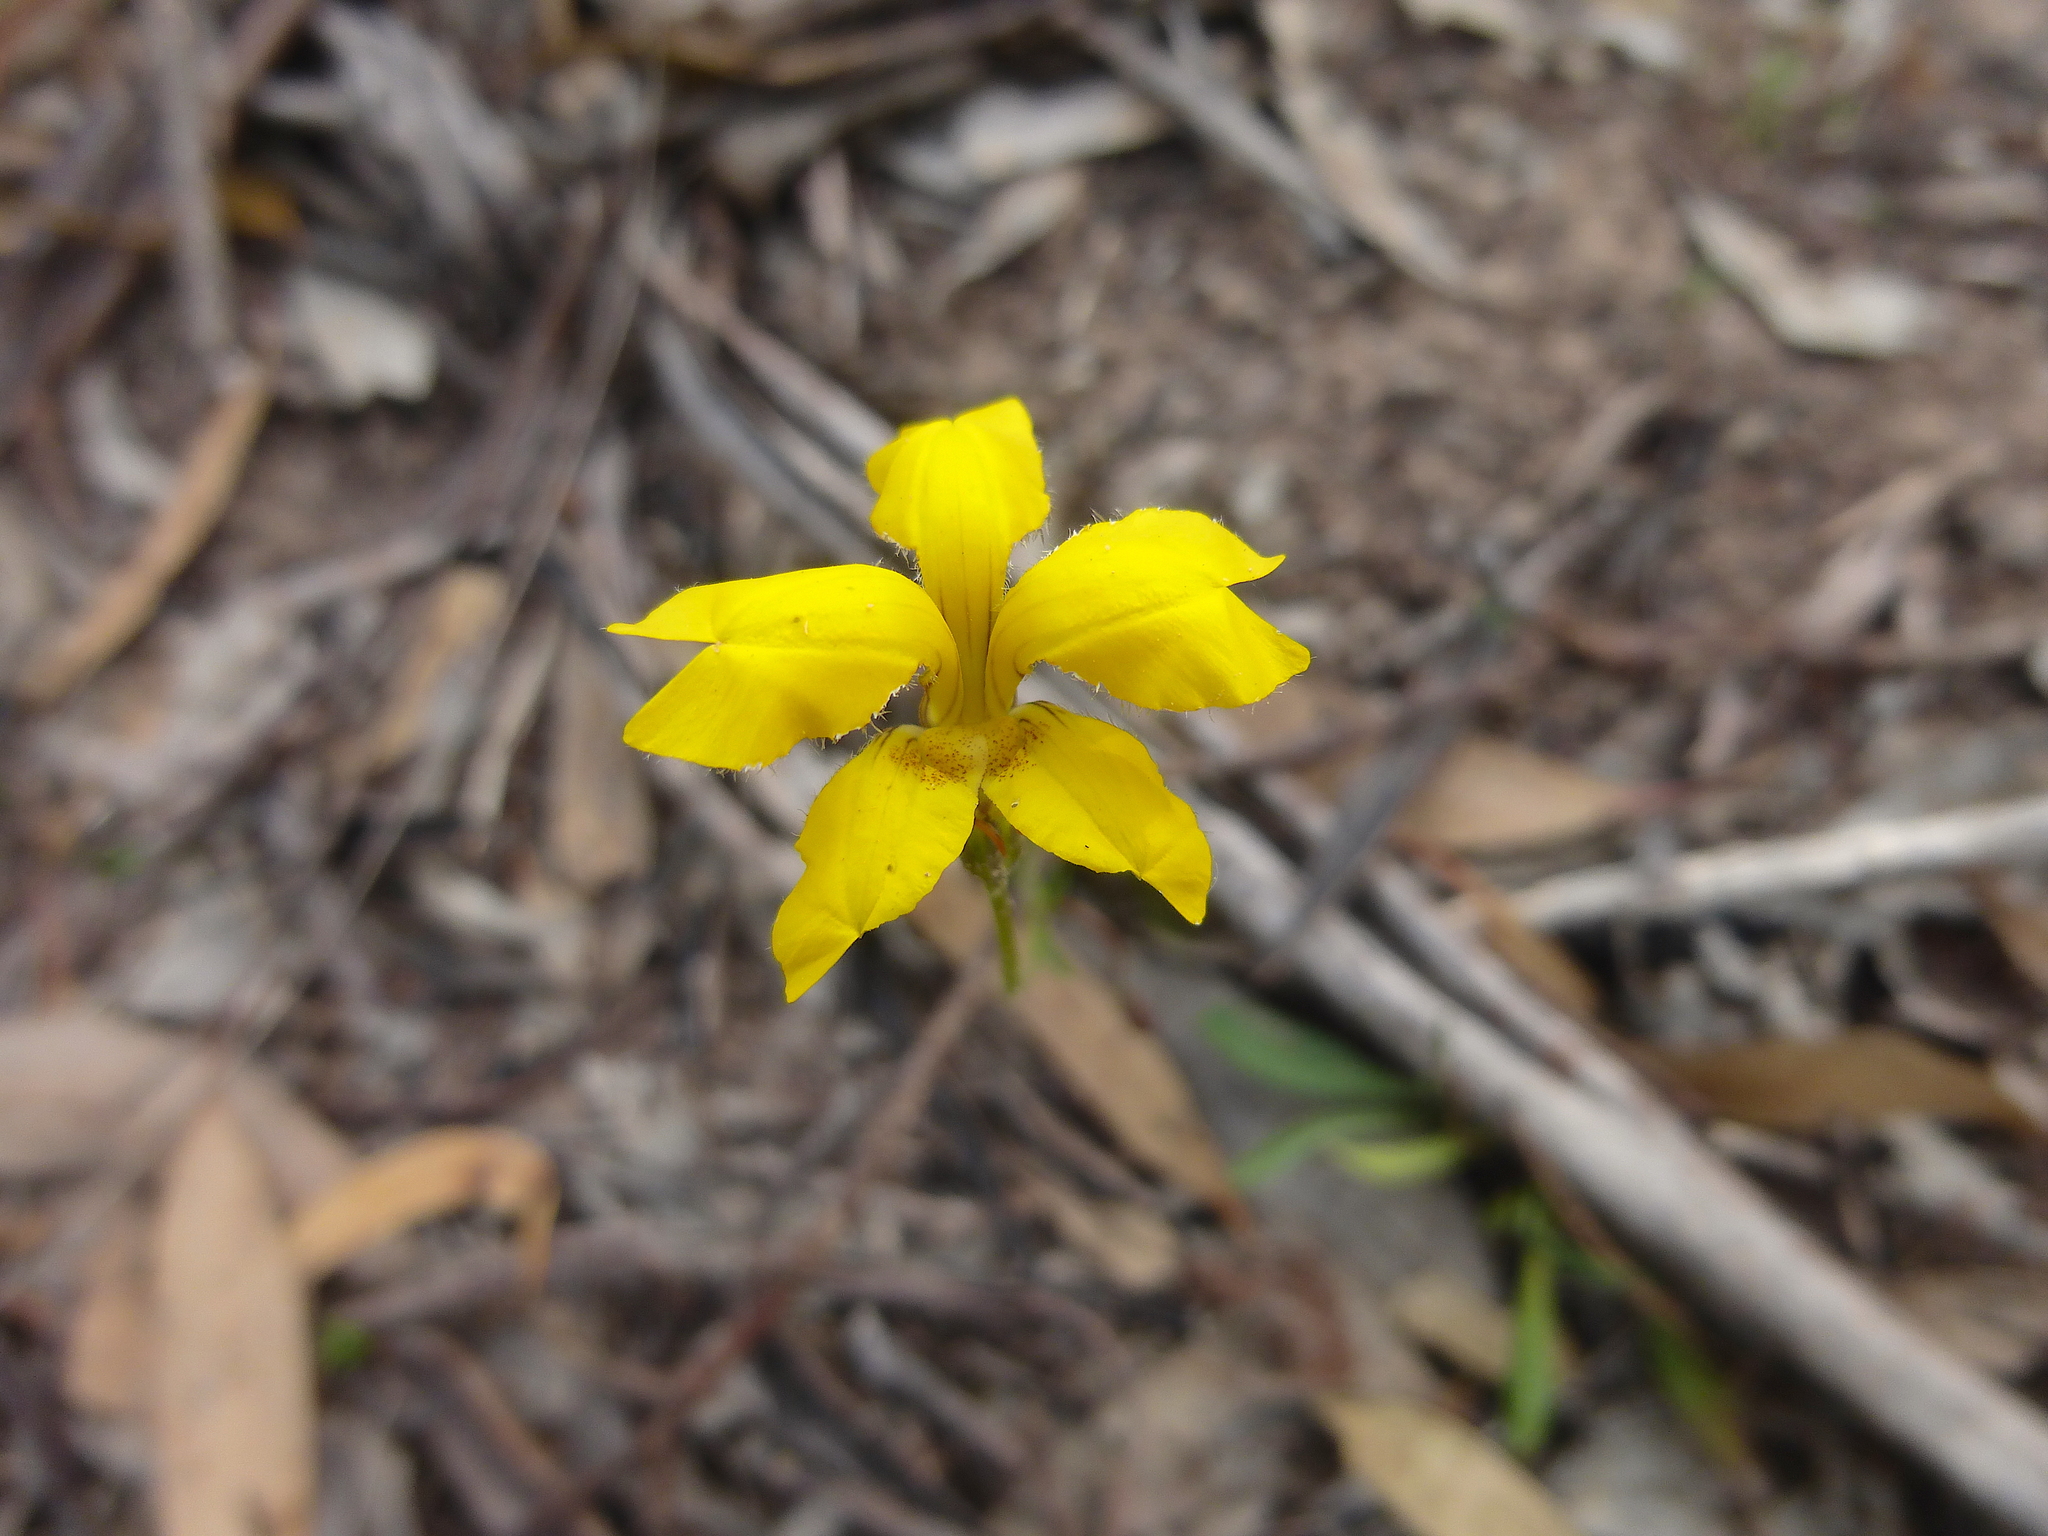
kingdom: Plantae
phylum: Tracheophyta
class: Magnoliopsida
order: Asterales
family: Goodeniaceae
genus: Goodenia
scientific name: Goodenia pinnatifida
